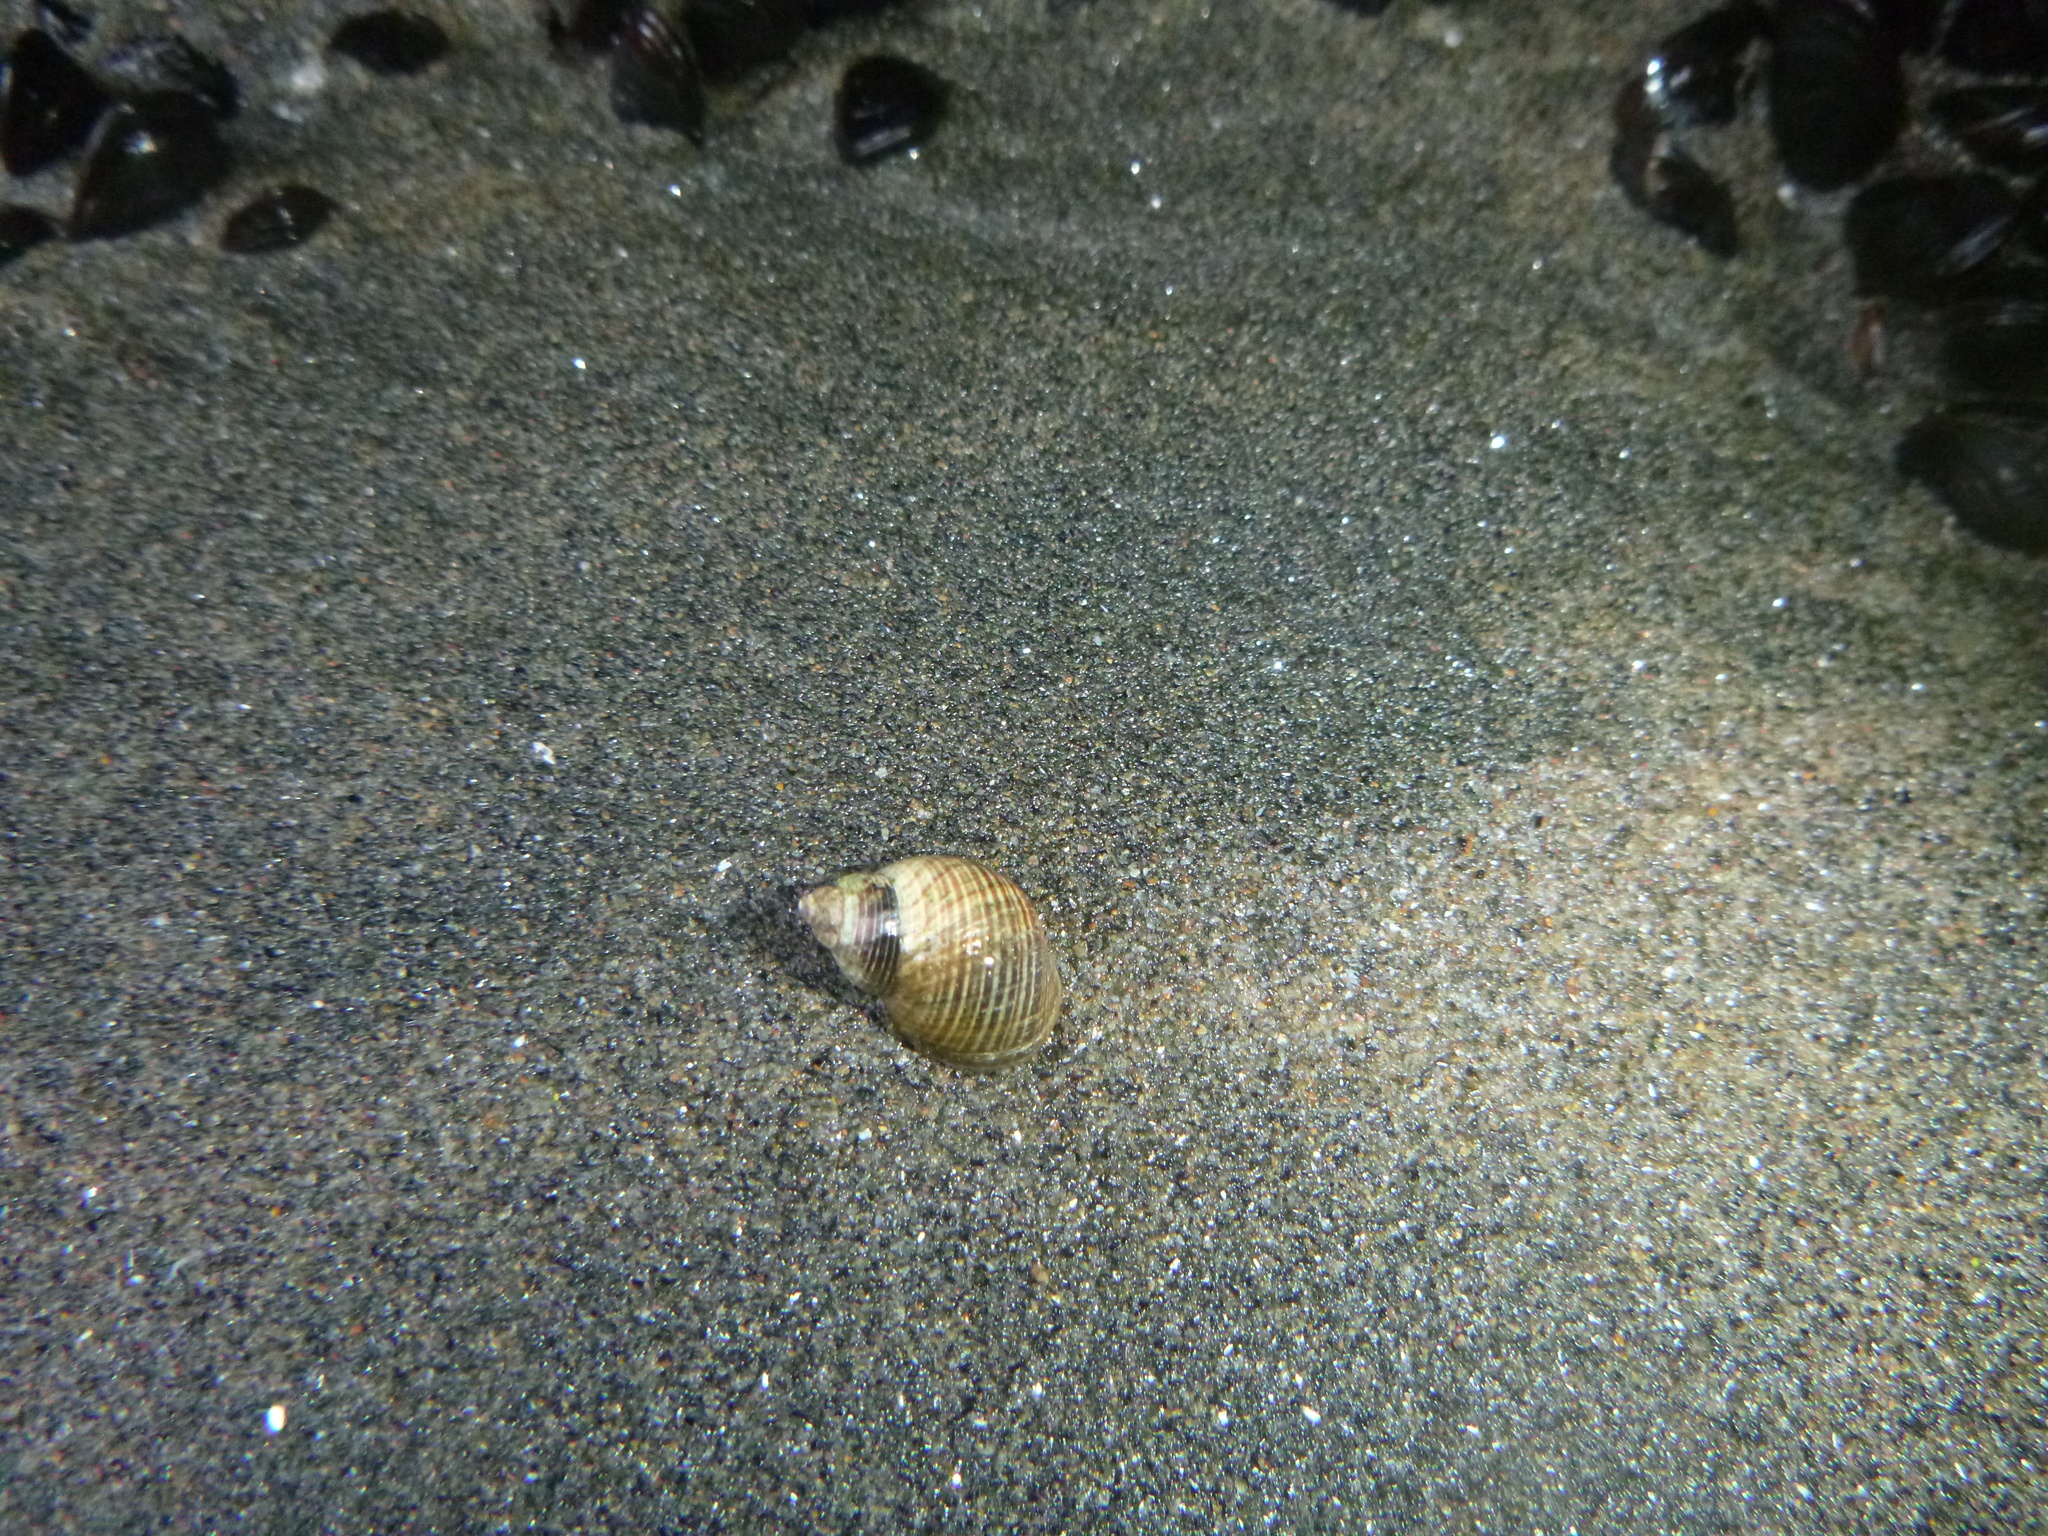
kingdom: Animalia
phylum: Mollusca
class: Gastropoda
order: Littorinimorpha
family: Littorinidae
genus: Austrolittorina
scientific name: Austrolittorina cincta
